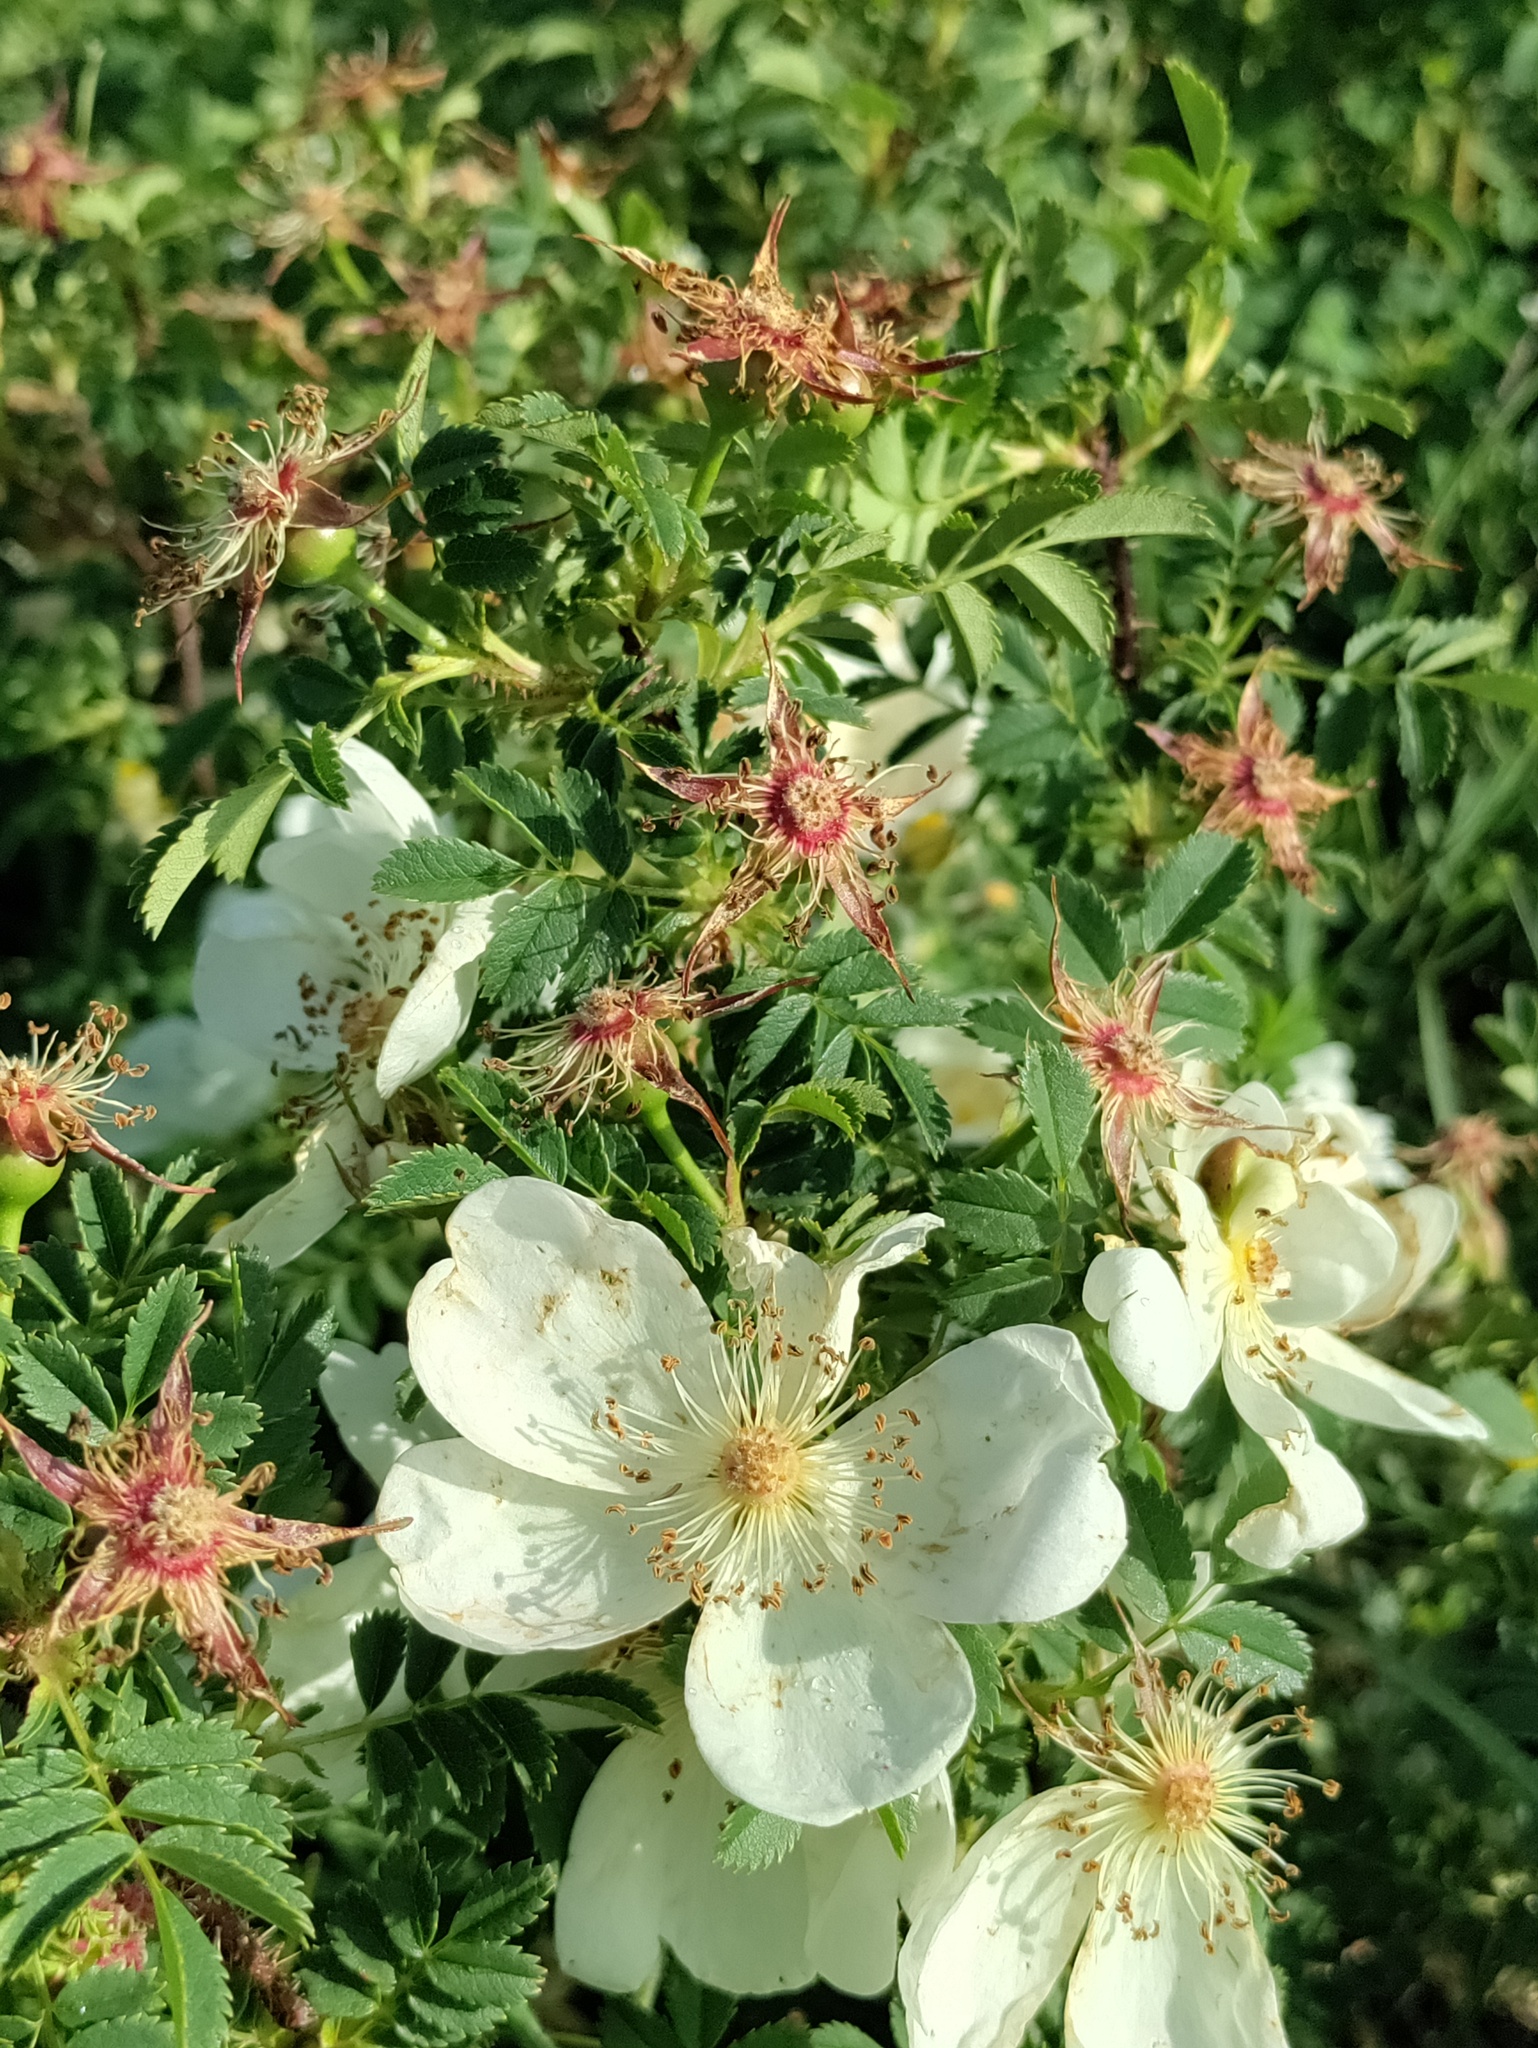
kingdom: Plantae
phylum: Tracheophyta
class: Magnoliopsida
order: Rosales
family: Rosaceae
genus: Rosa
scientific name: Rosa spinosissima
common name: Burnet rose
